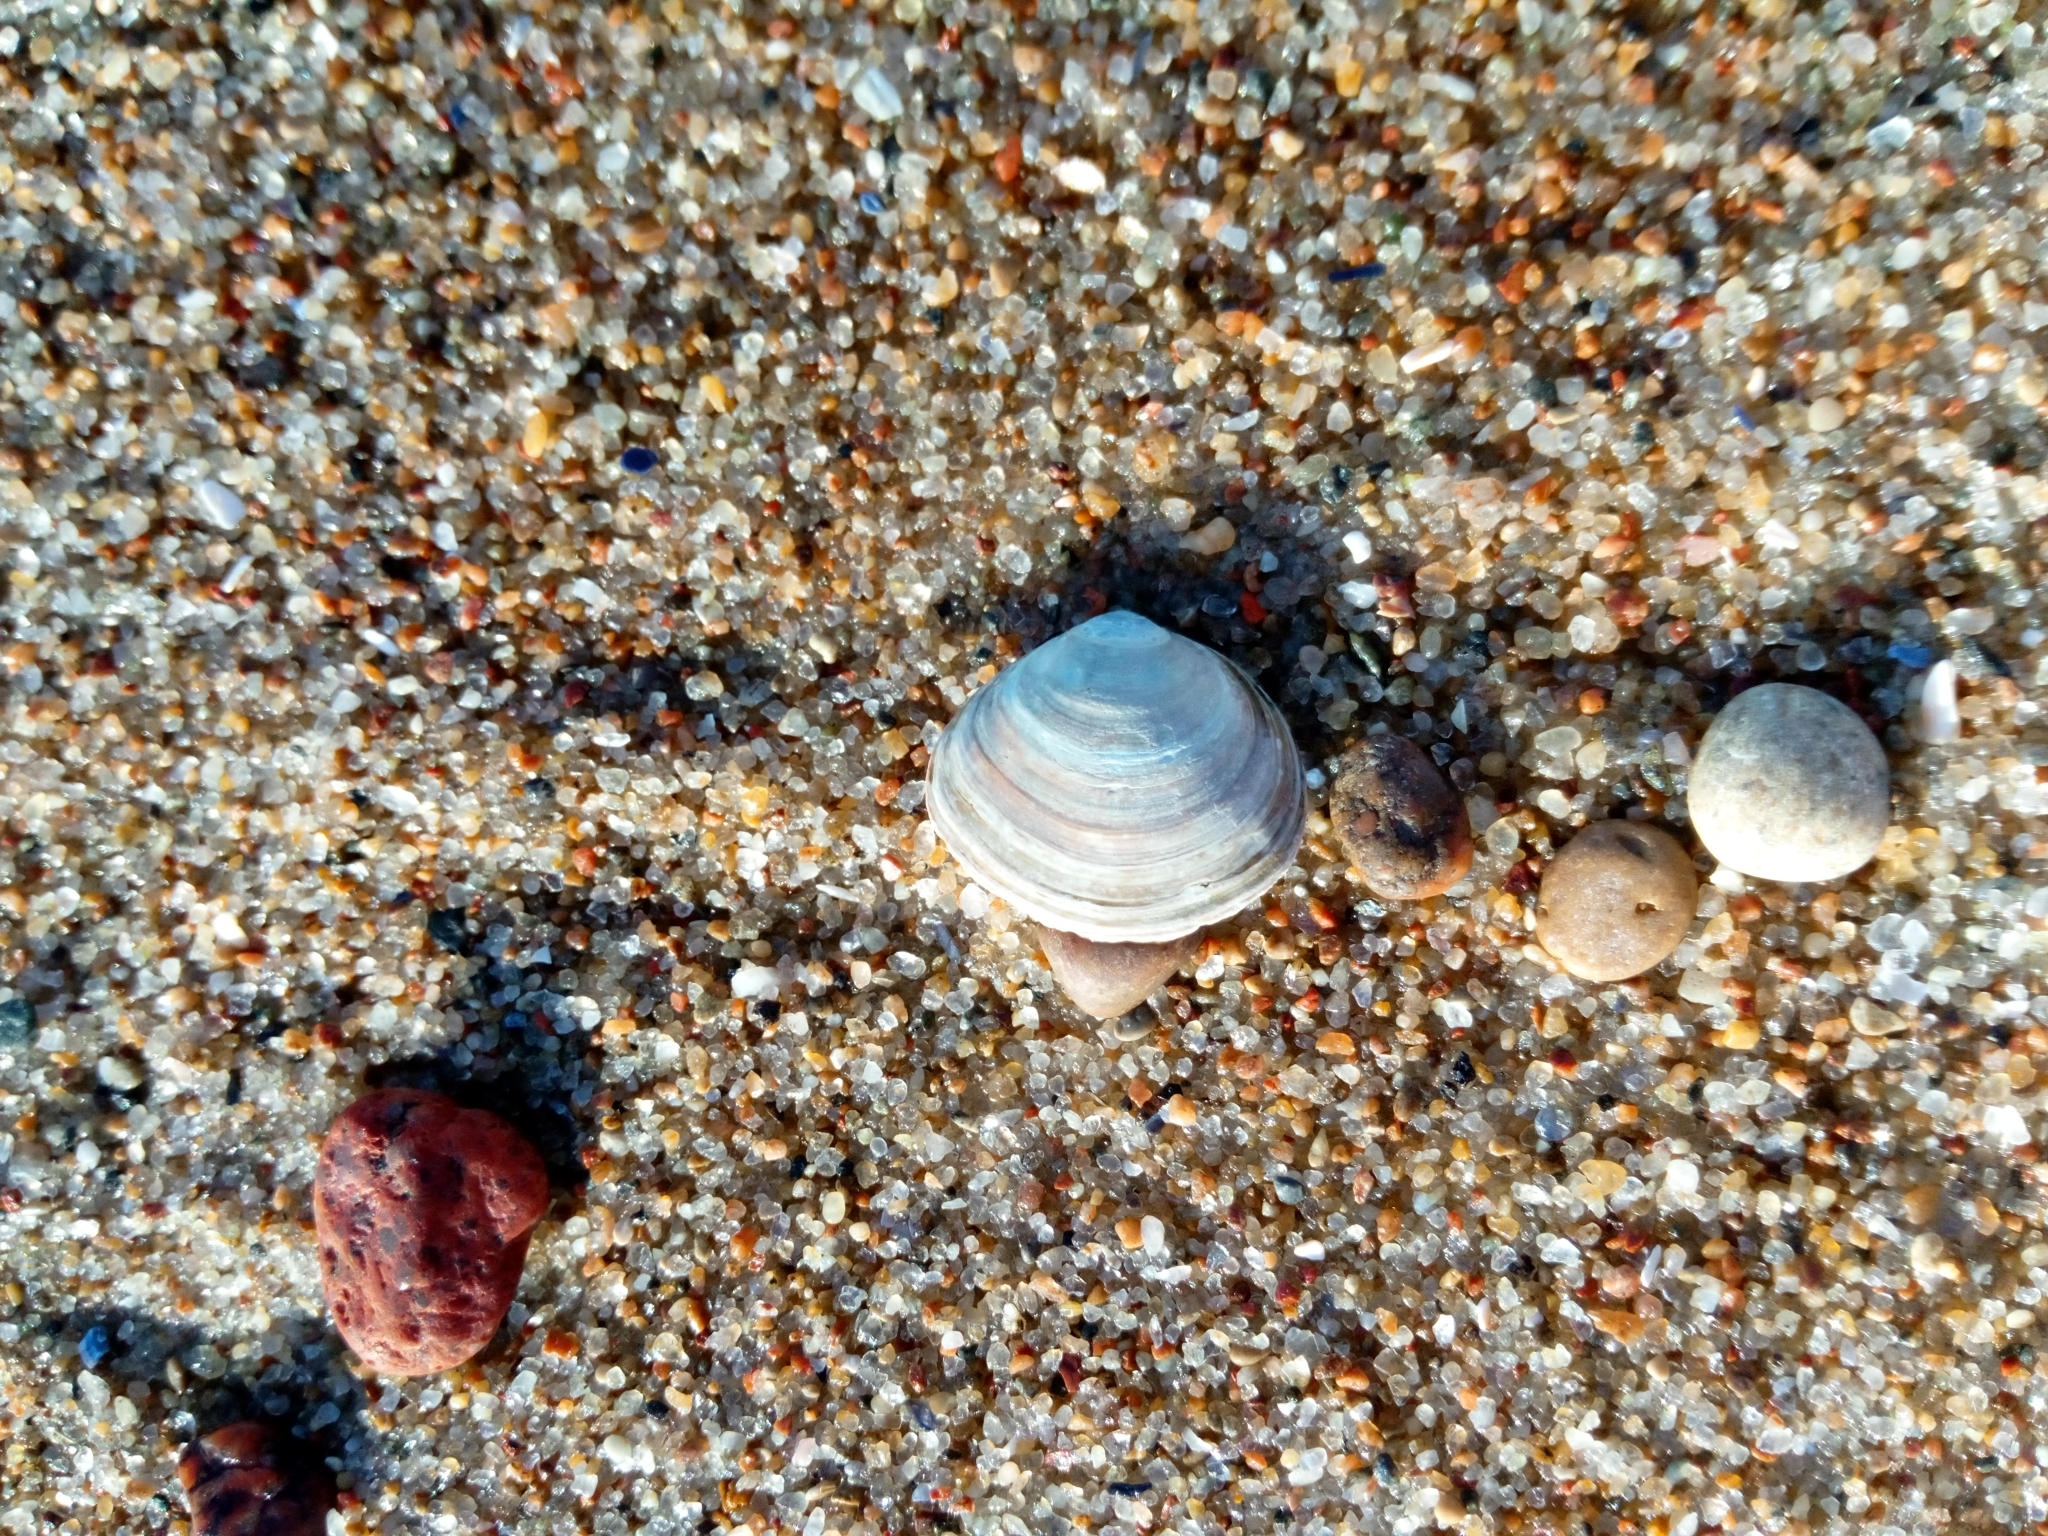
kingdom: Animalia
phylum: Mollusca
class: Bivalvia
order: Cardiida
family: Tellinidae
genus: Macoma
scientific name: Macoma balthica
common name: Baltic tellin
